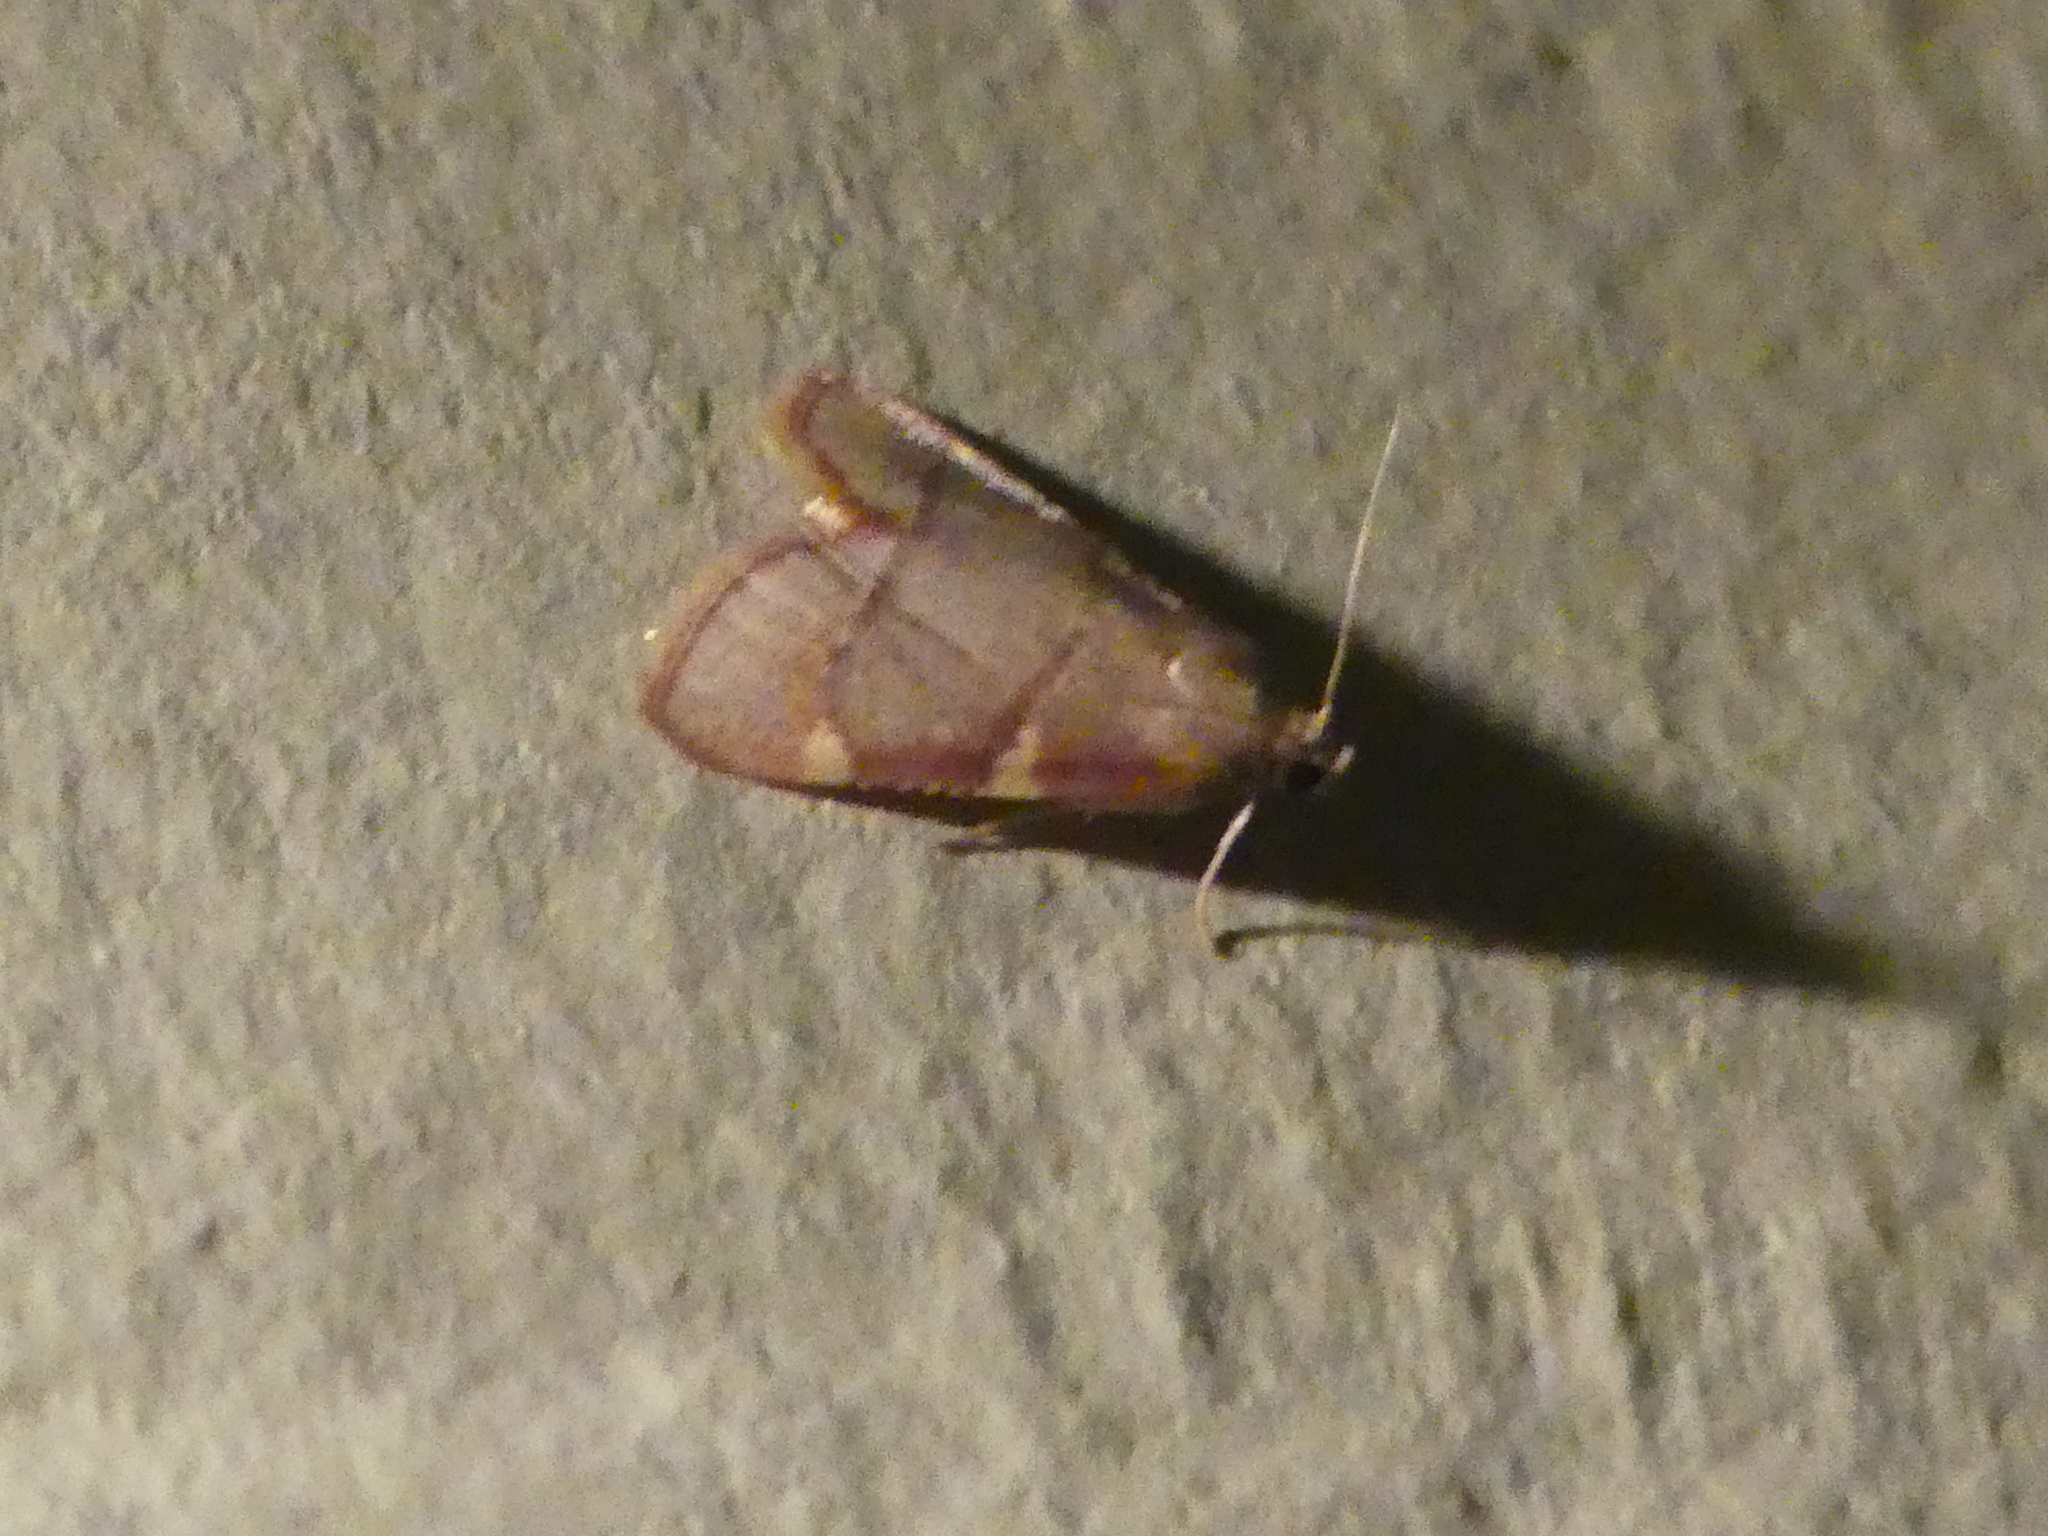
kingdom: Animalia
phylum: Arthropoda
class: Insecta
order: Lepidoptera
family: Pyralidae
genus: Hypsopygia
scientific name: Hypsopygia olinalis
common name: Yellow-fringed dolichomia moth
